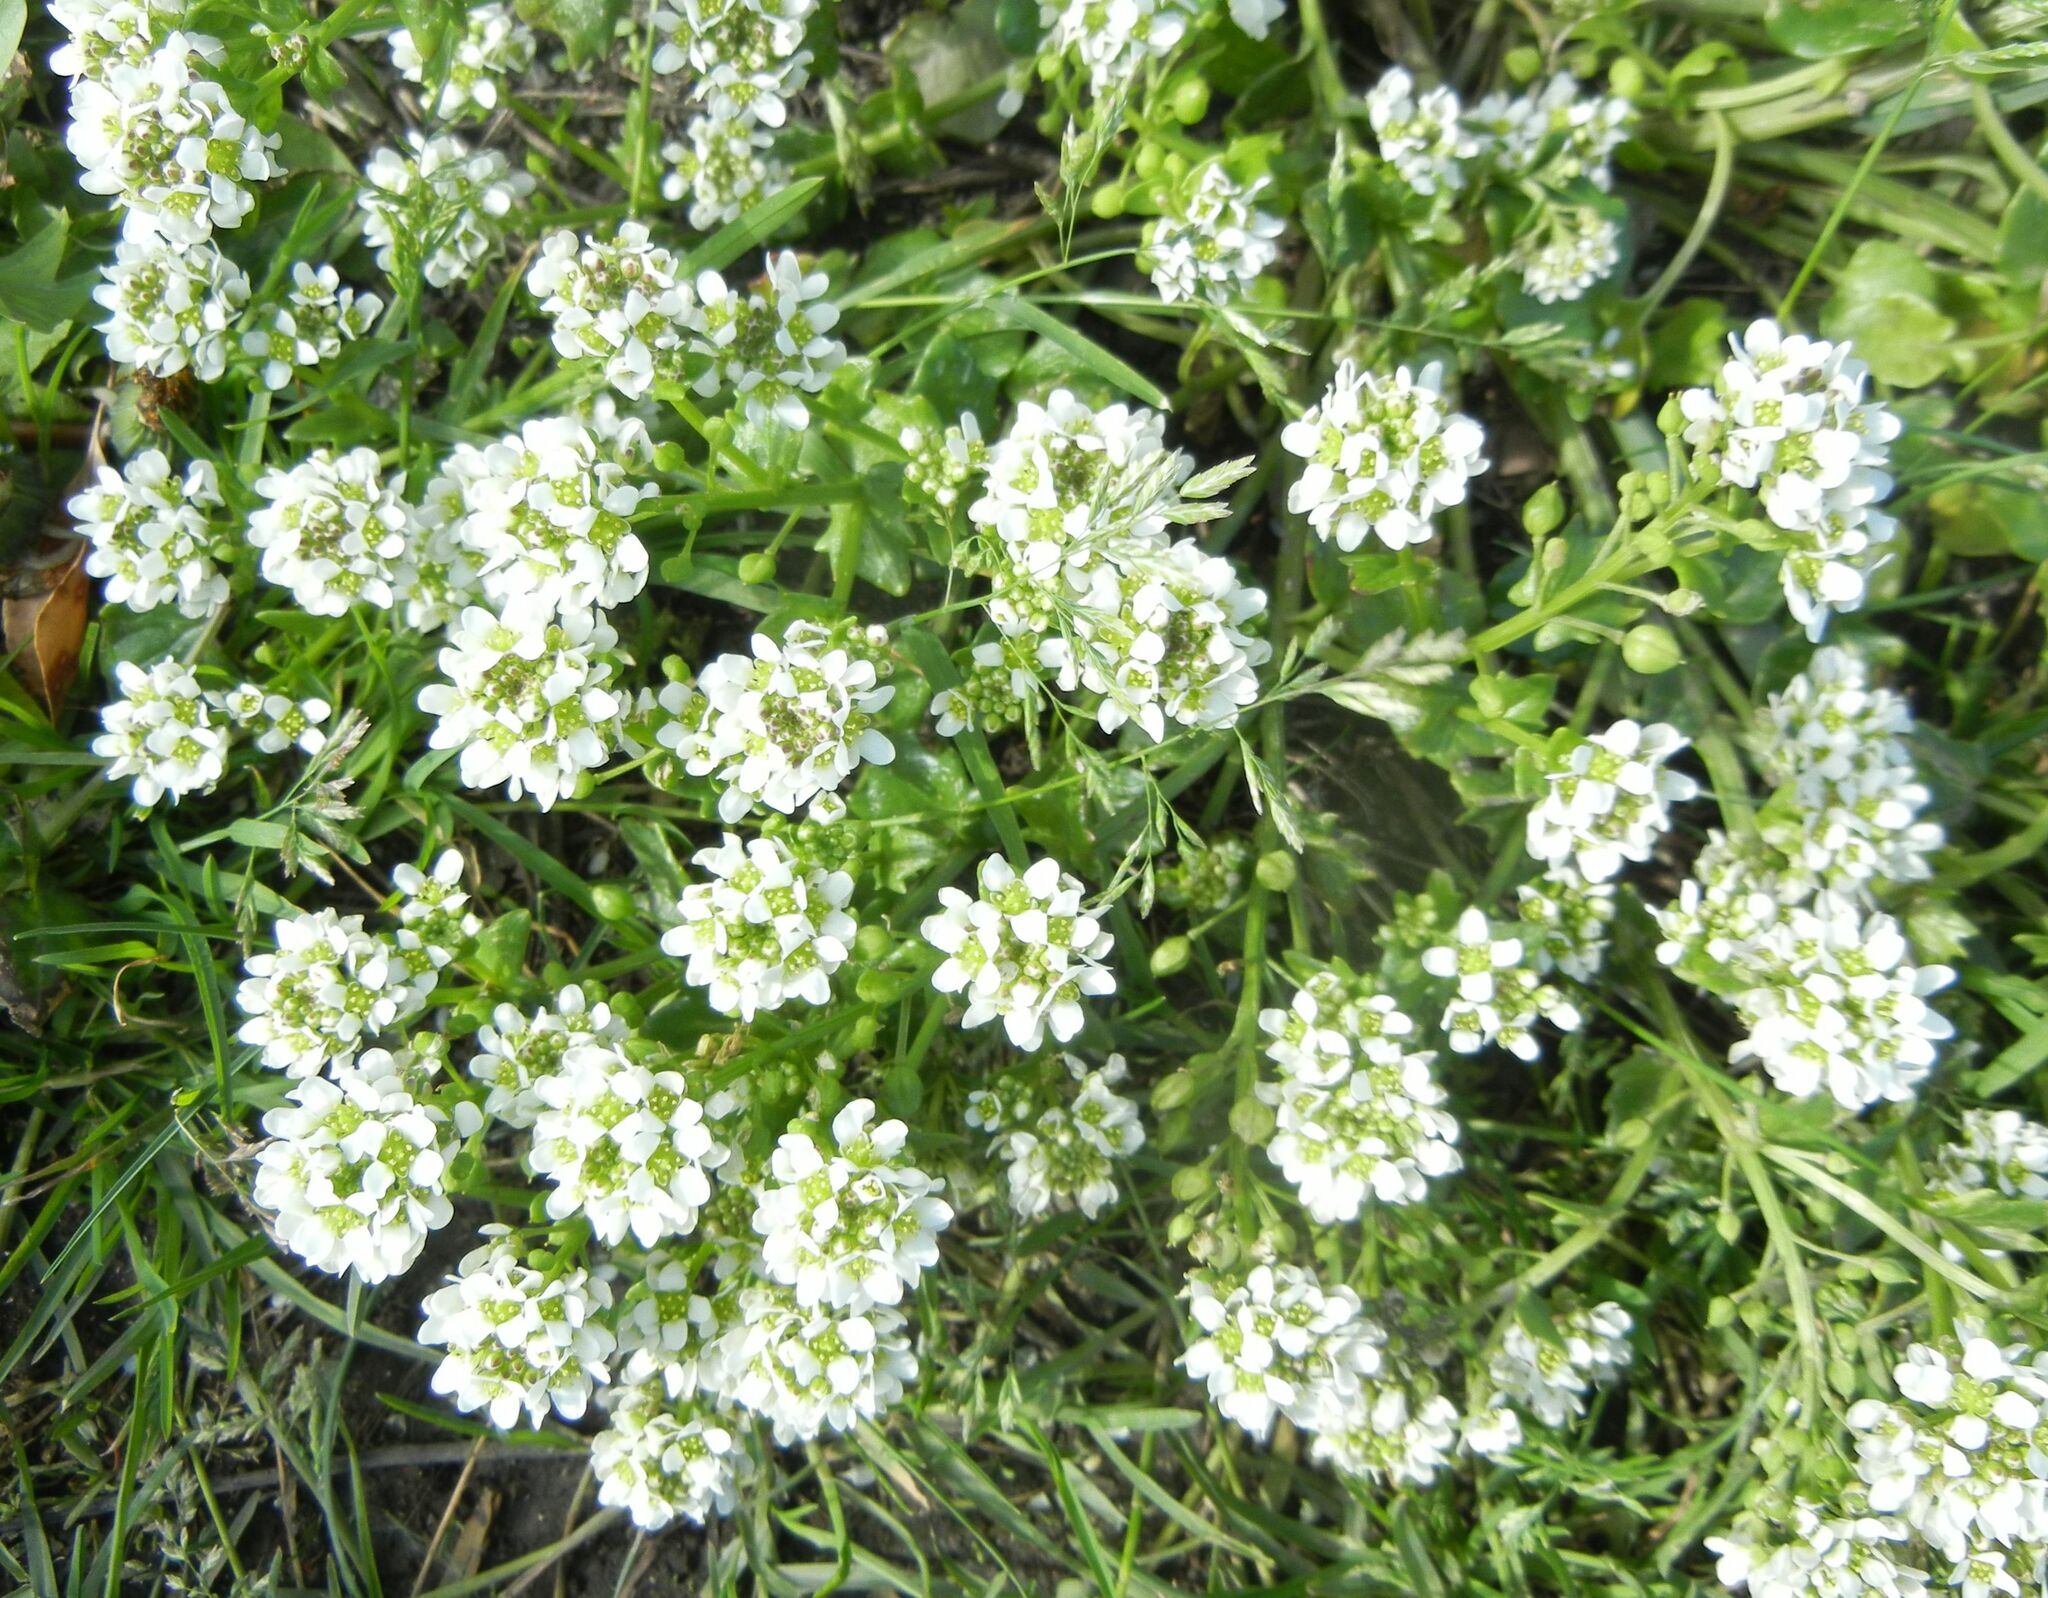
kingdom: Plantae
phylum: Tracheophyta
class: Magnoliopsida
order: Brassicales
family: Brassicaceae
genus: Cochlearia
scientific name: Cochlearia officinalis
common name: Scurvy-grass
